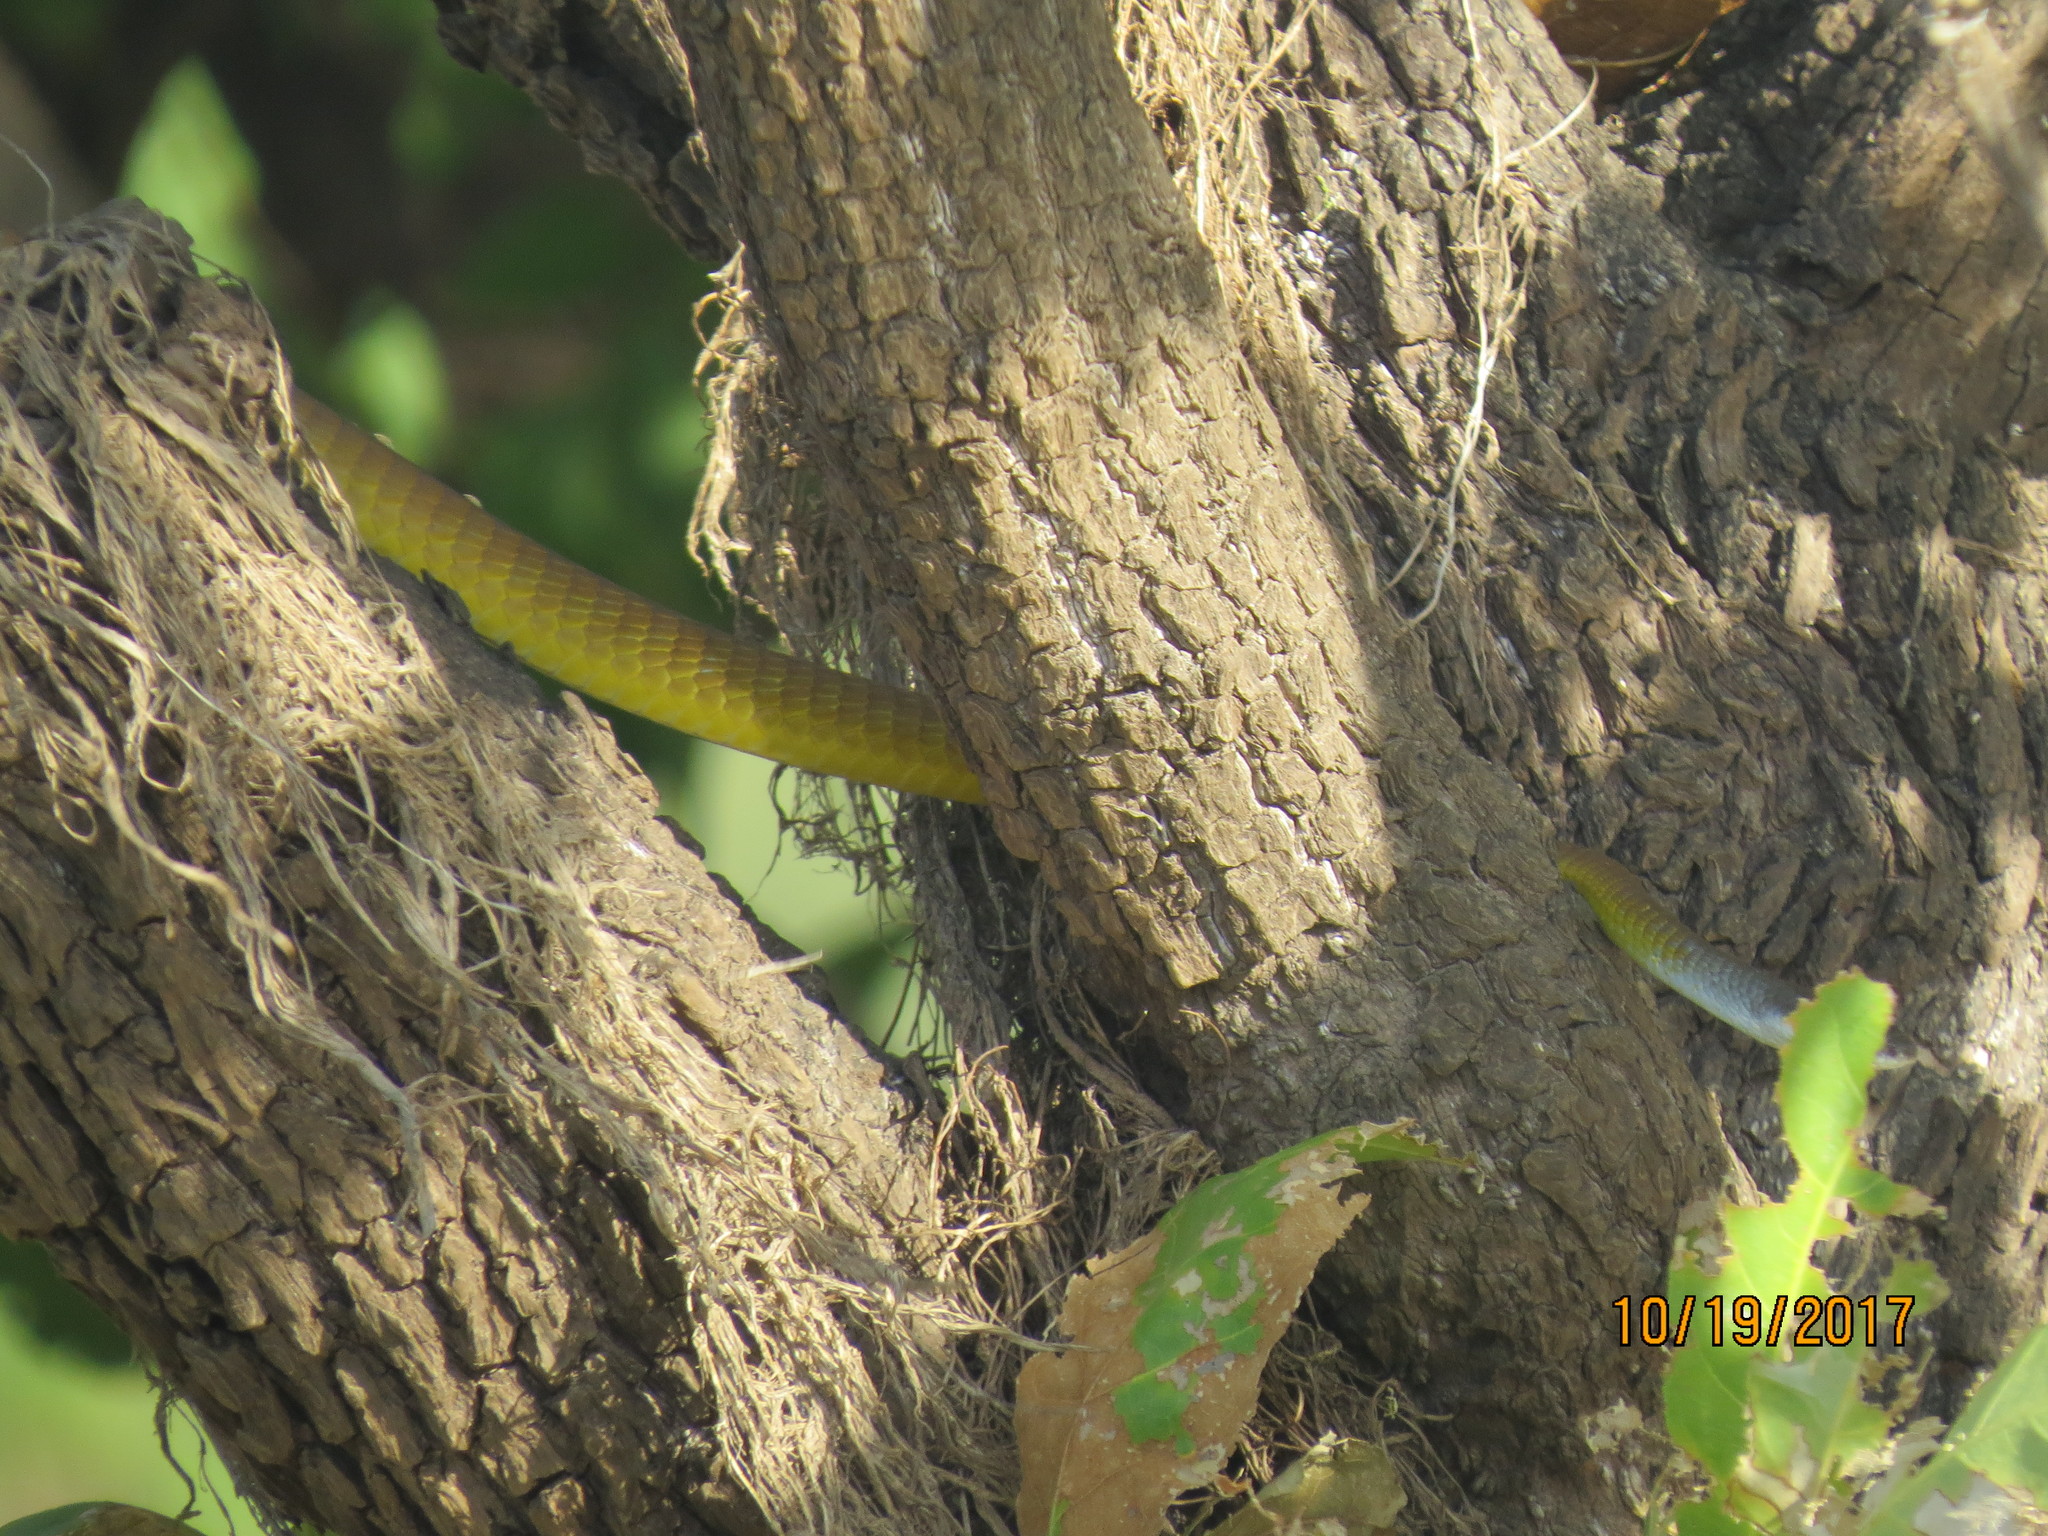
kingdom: Animalia
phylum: Chordata
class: Squamata
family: Colubridae
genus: Dendrelaphis
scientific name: Dendrelaphis punctulatus
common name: Common tree snake
